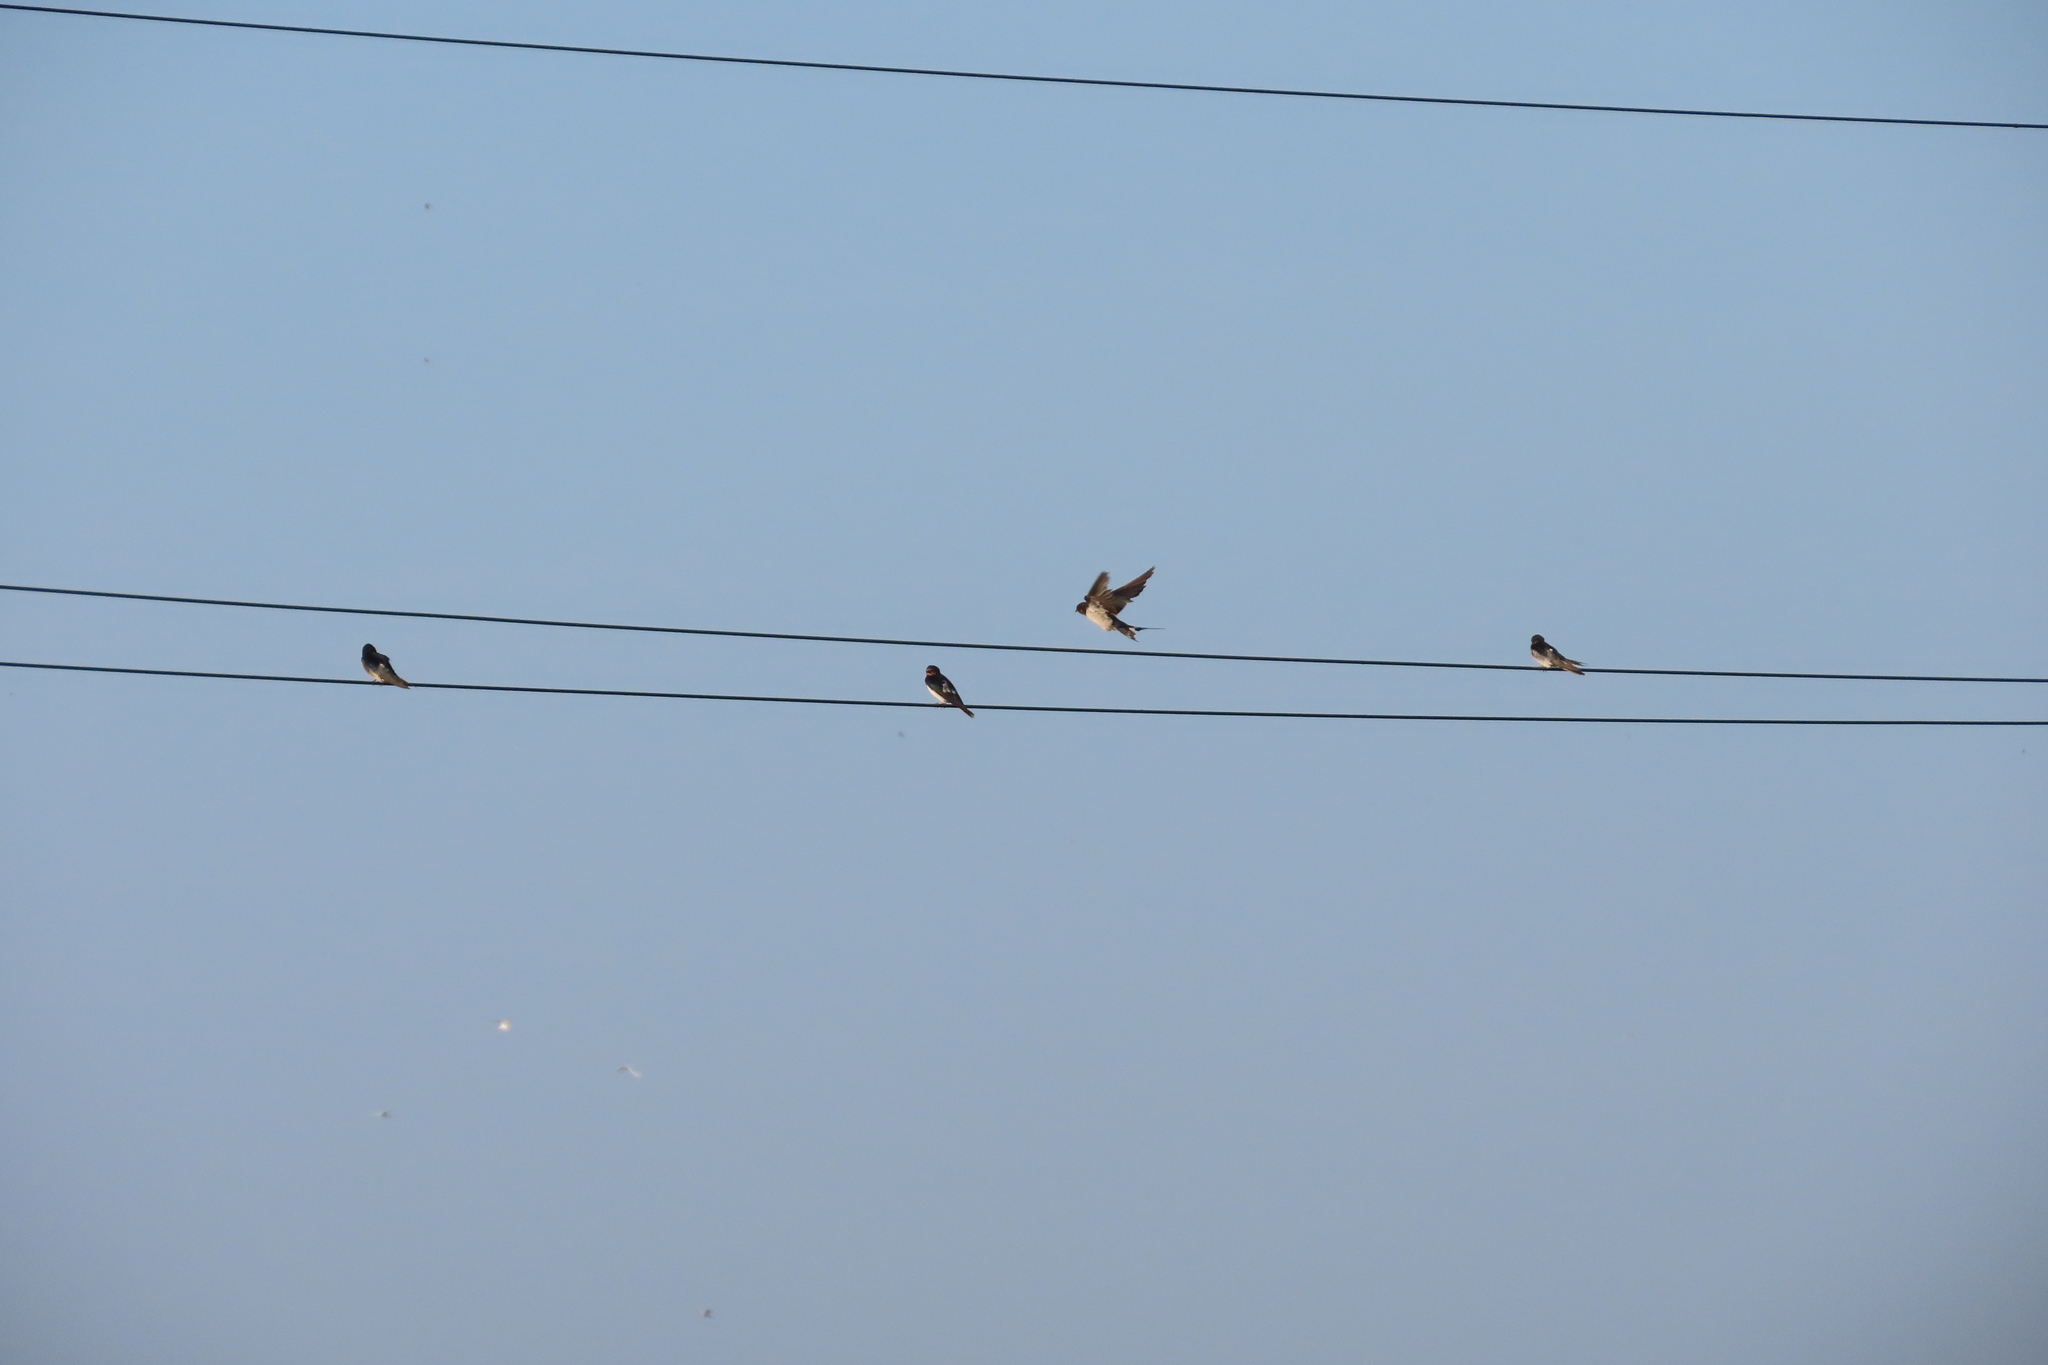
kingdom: Animalia
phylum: Chordata
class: Aves
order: Passeriformes
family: Hirundinidae
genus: Hirundo
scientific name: Hirundo rustica
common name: Barn swallow
